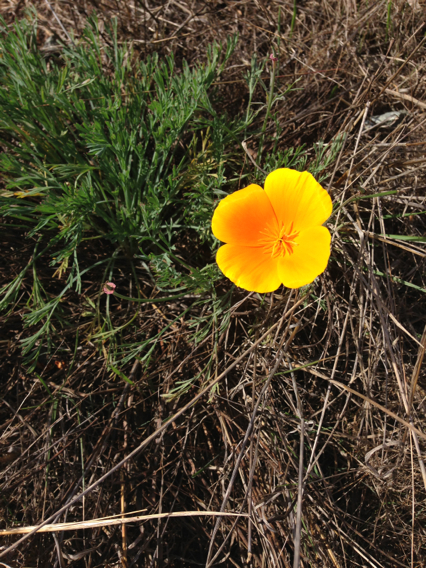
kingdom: Plantae
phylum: Tracheophyta
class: Magnoliopsida
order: Ranunculales
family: Papaveraceae
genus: Eschscholzia
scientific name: Eschscholzia californica
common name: California poppy
